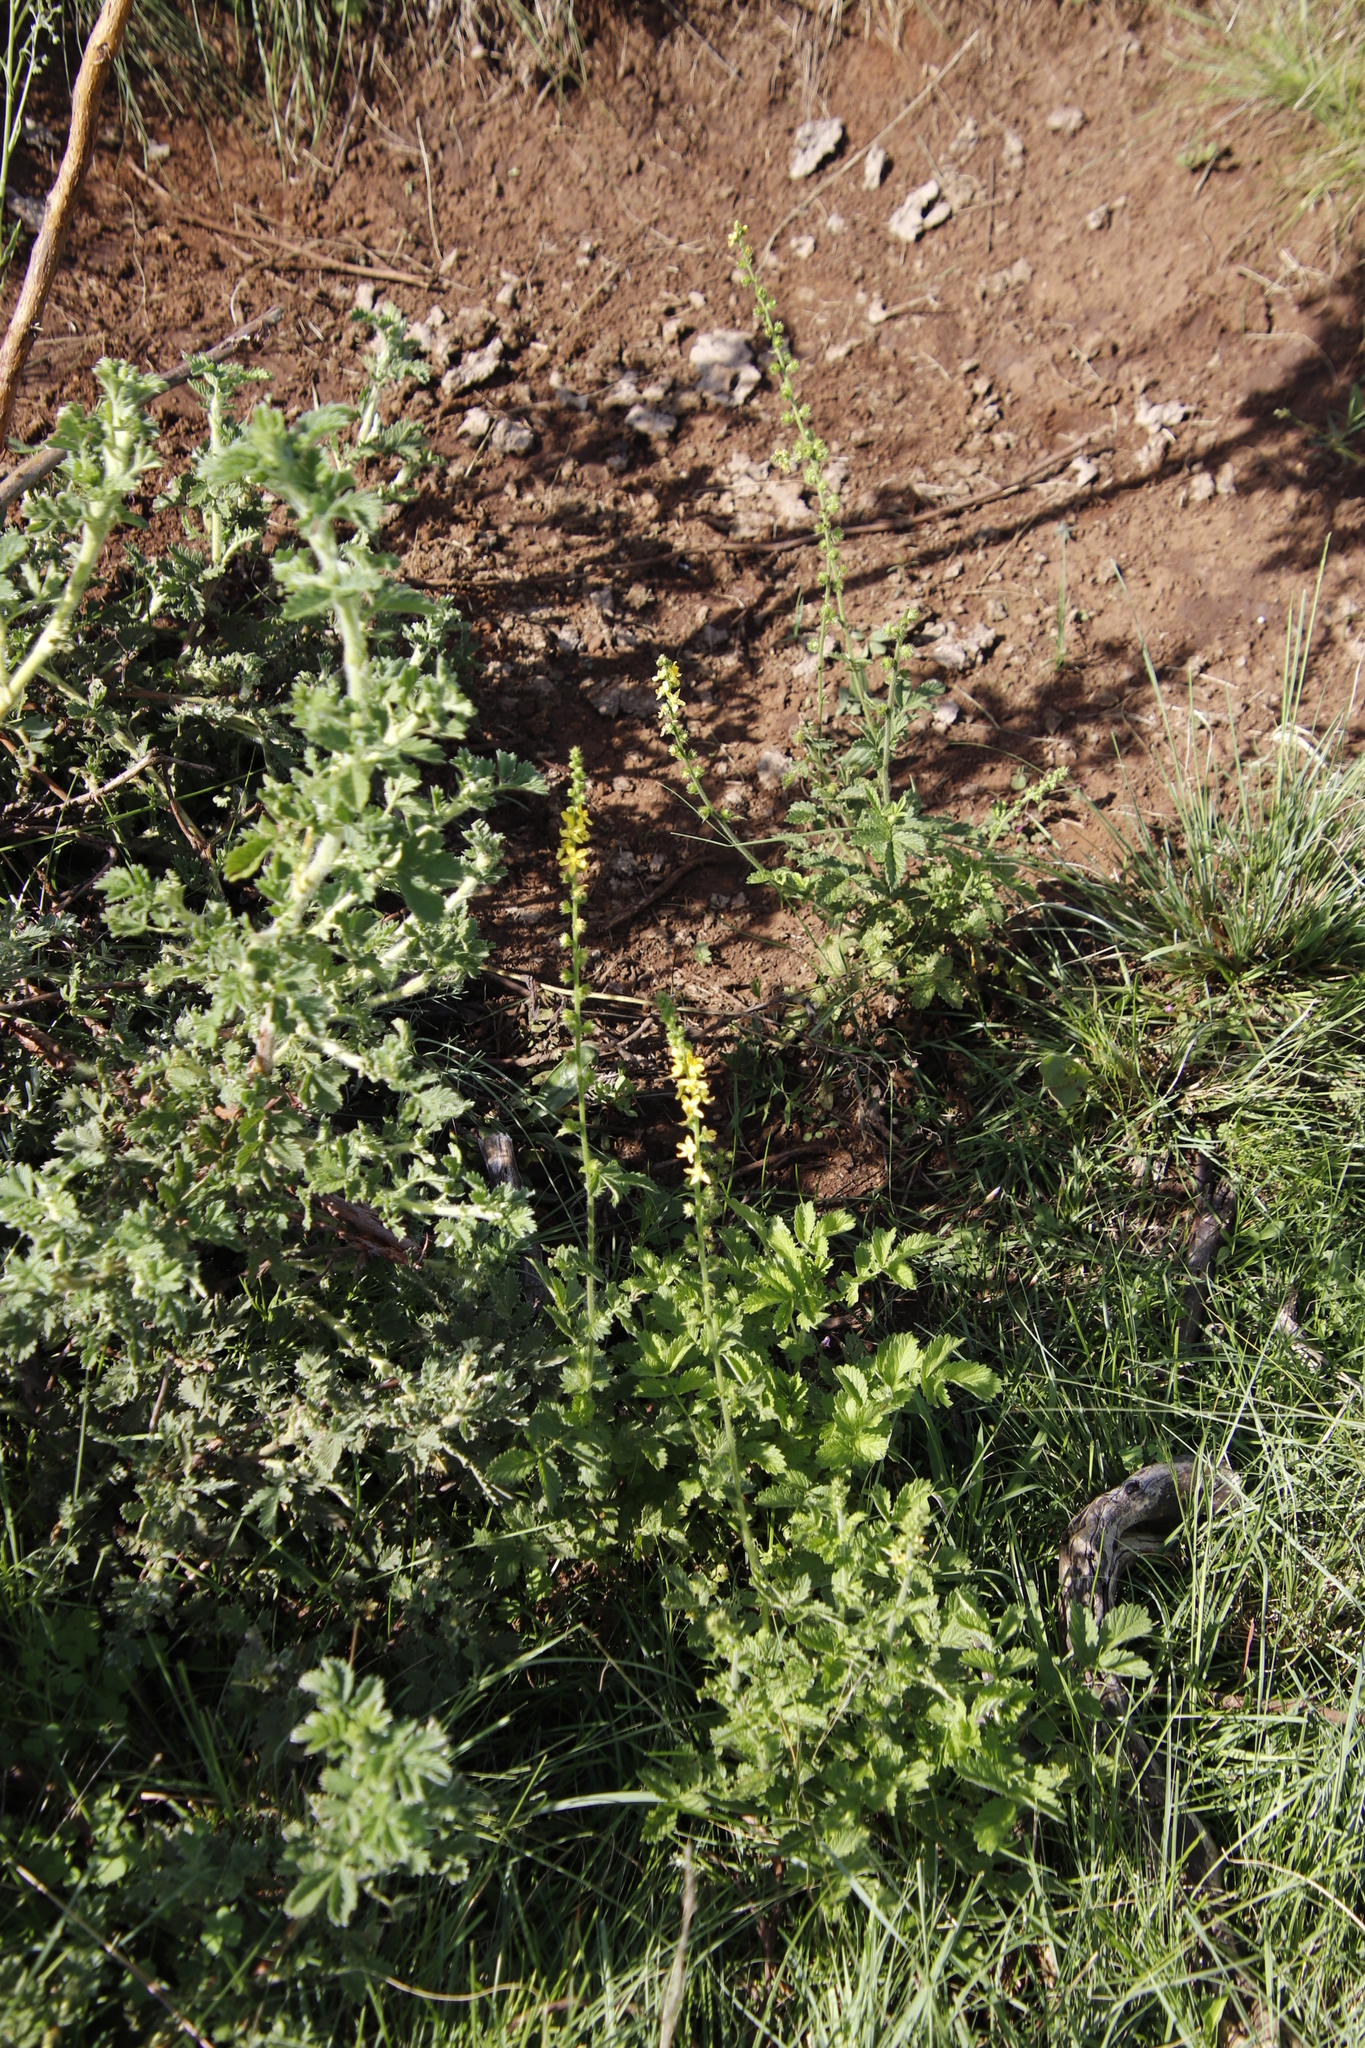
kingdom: Plantae
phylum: Tracheophyta
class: Magnoliopsida
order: Rosales
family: Rosaceae
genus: Agrimonia
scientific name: Agrimonia bracteata
